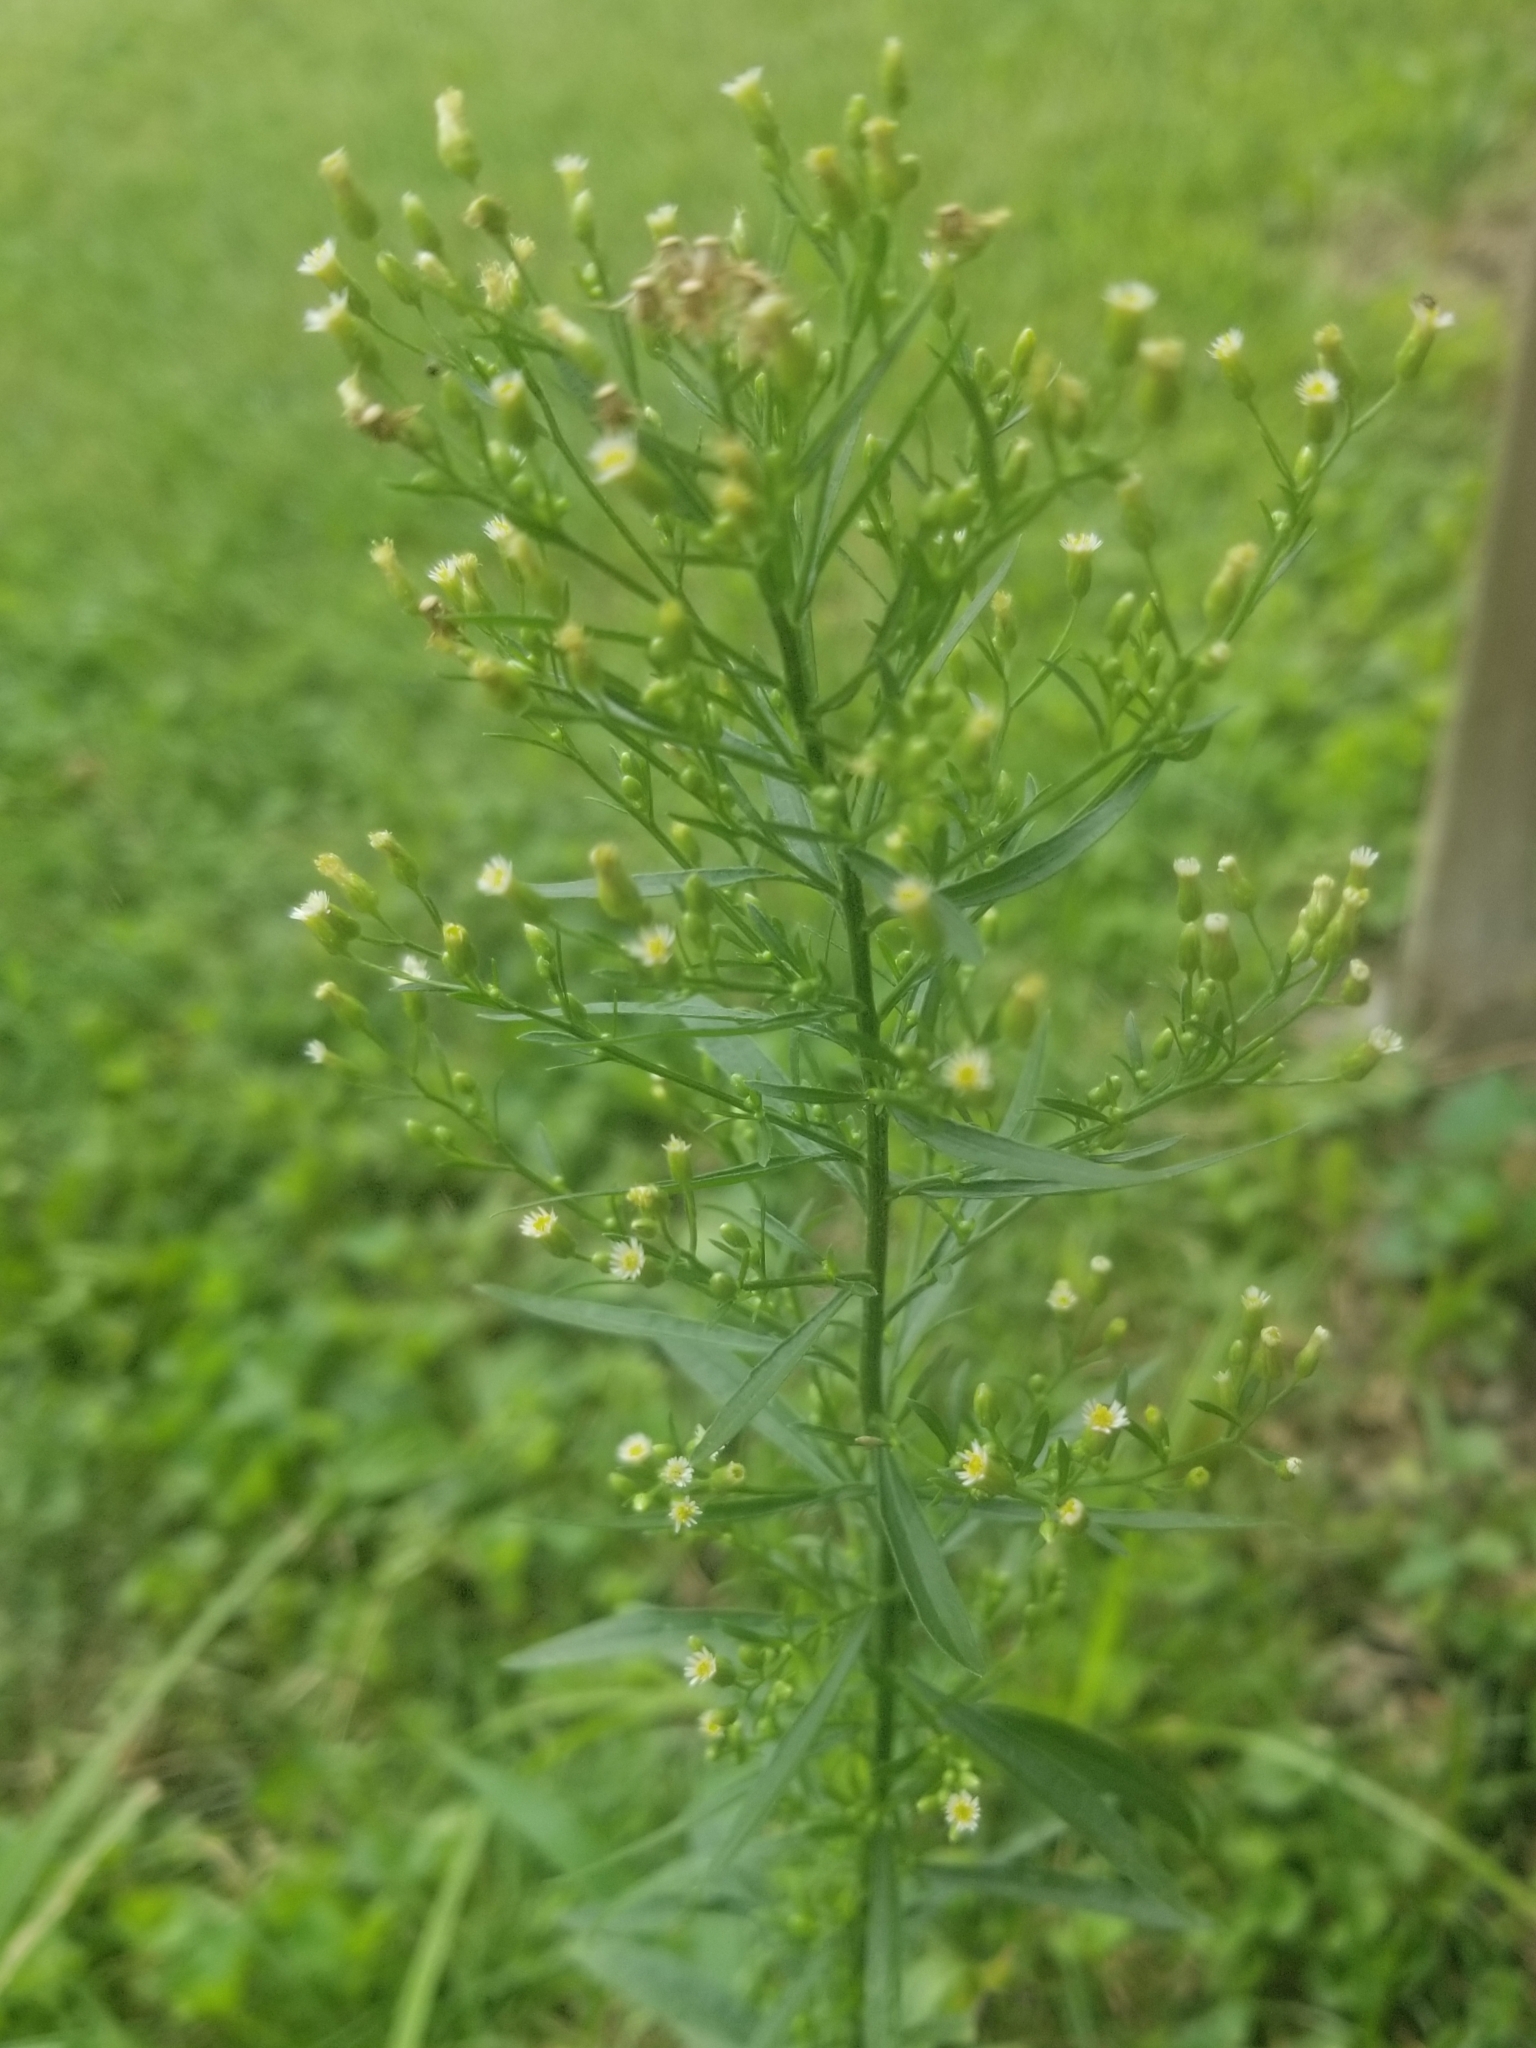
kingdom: Plantae
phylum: Tracheophyta
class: Magnoliopsida
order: Asterales
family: Asteraceae
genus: Erigeron
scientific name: Erigeron canadensis
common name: Canadian fleabane
